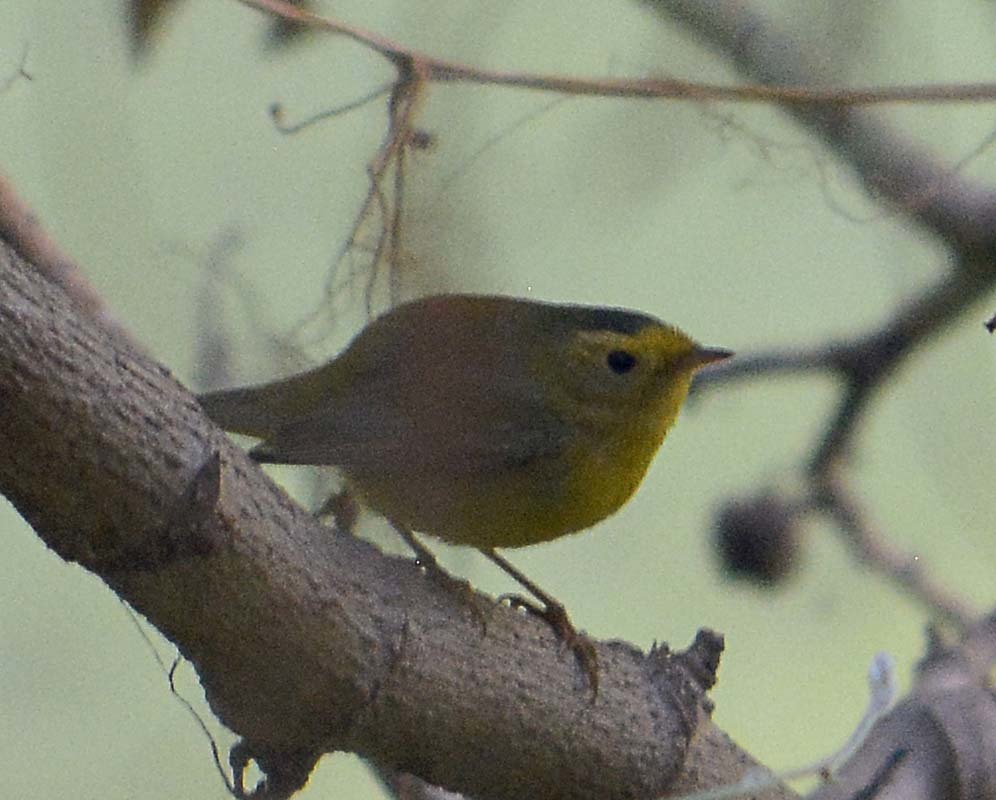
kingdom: Animalia
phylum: Chordata
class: Aves
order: Passeriformes
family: Parulidae
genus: Cardellina
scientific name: Cardellina pusilla
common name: Wilson's warbler
